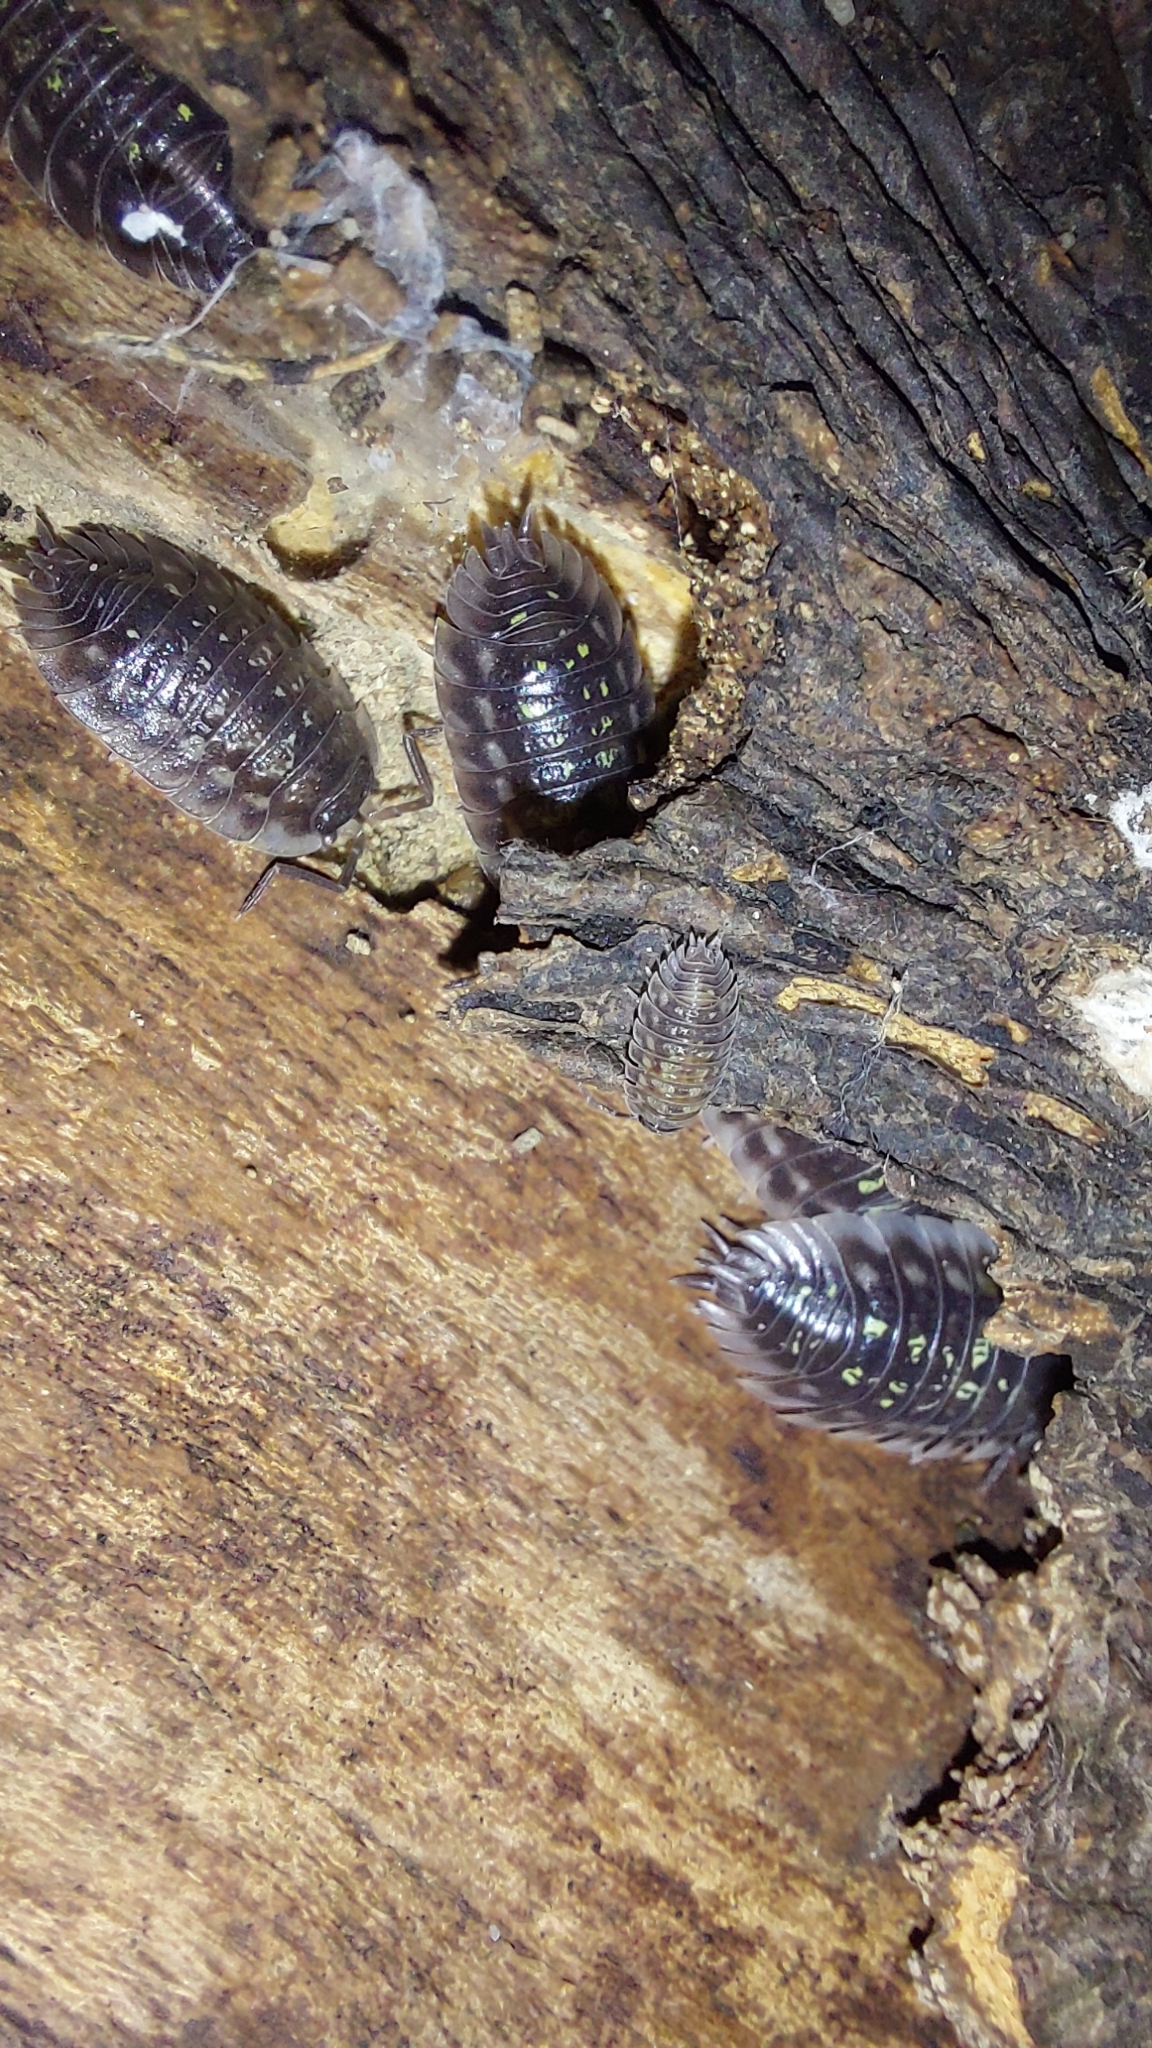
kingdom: Animalia
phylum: Arthropoda
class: Malacostraca
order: Isopoda
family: Oniscidae
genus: Oniscus
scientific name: Oniscus asellus
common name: Common shiny woodlouse
